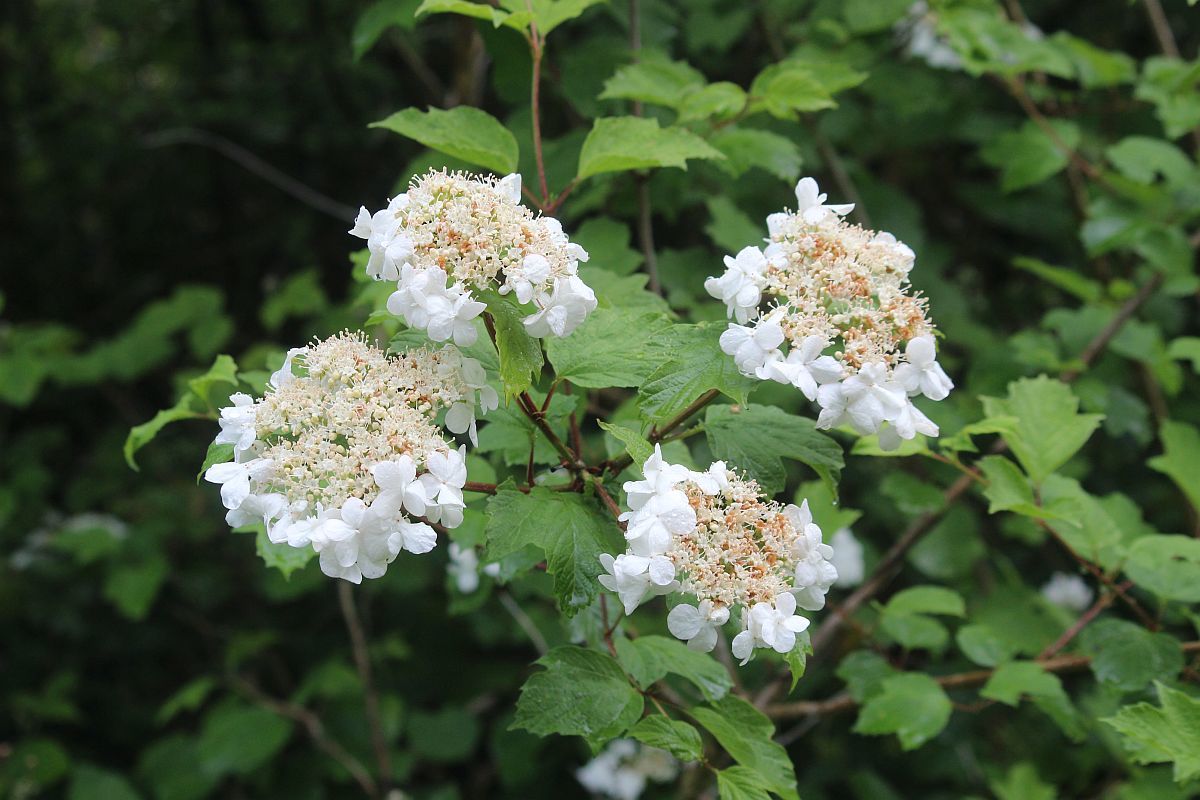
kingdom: Plantae
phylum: Tracheophyta
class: Magnoliopsida
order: Dipsacales
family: Viburnaceae
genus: Viburnum
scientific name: Viburnum opulus
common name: Guelder-rose
